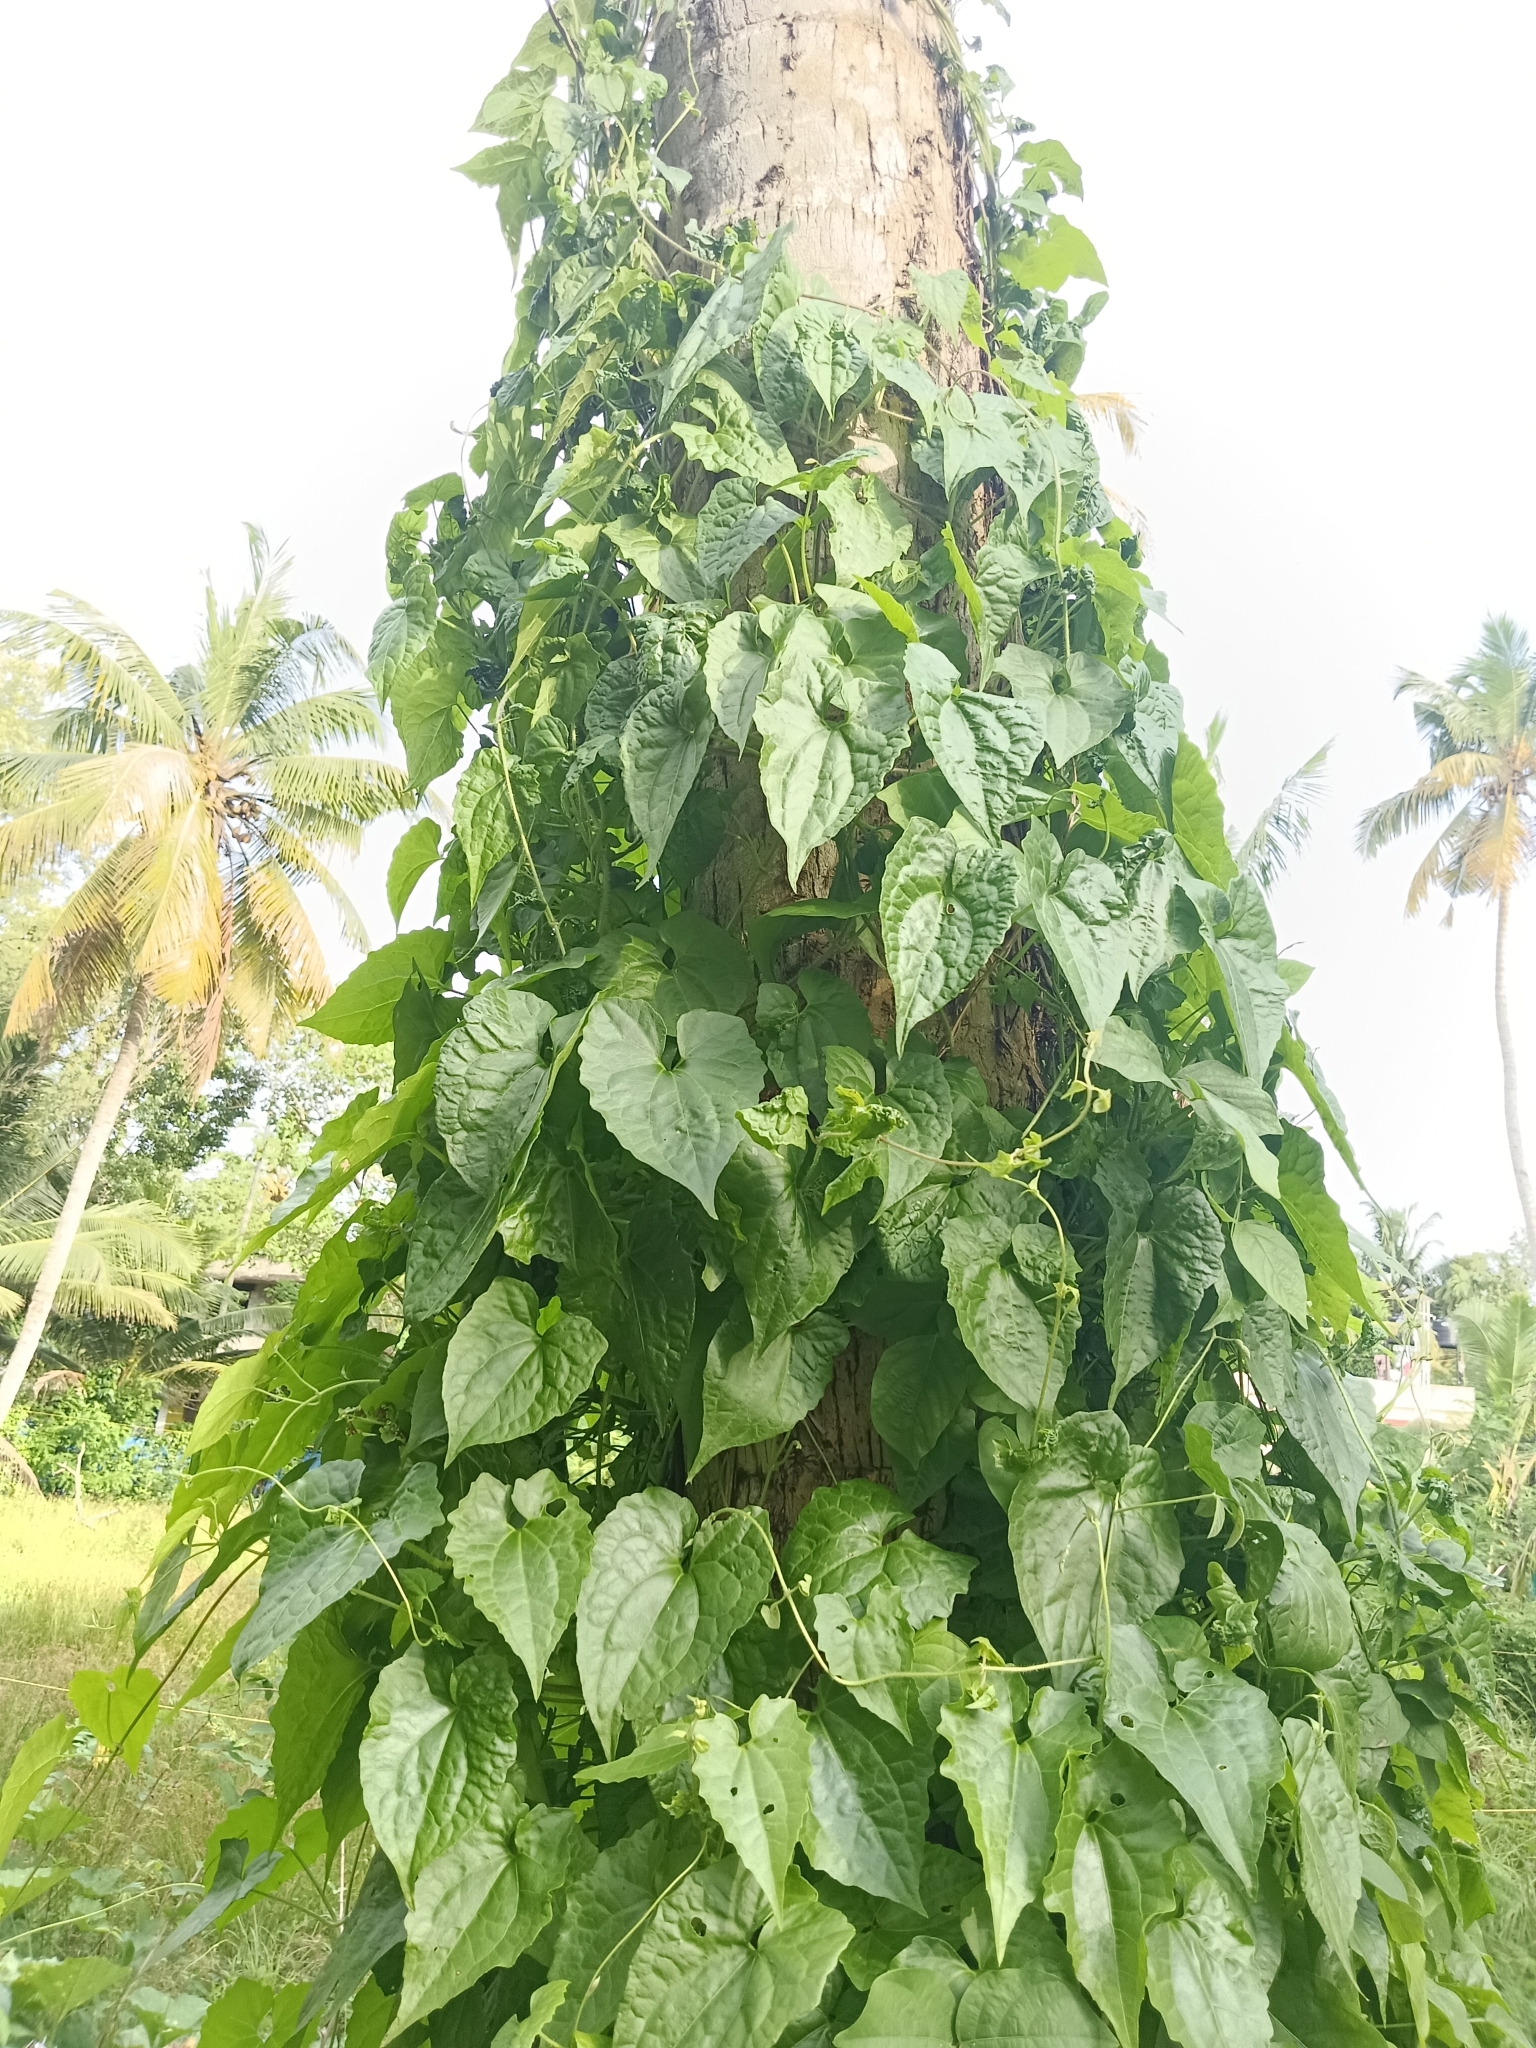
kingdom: Plantae
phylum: Tracheophyta
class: Magnoliopsida
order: Asterales
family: Asteraceae
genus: Mikania
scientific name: Mikania micrantha
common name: Mile-a-minute
